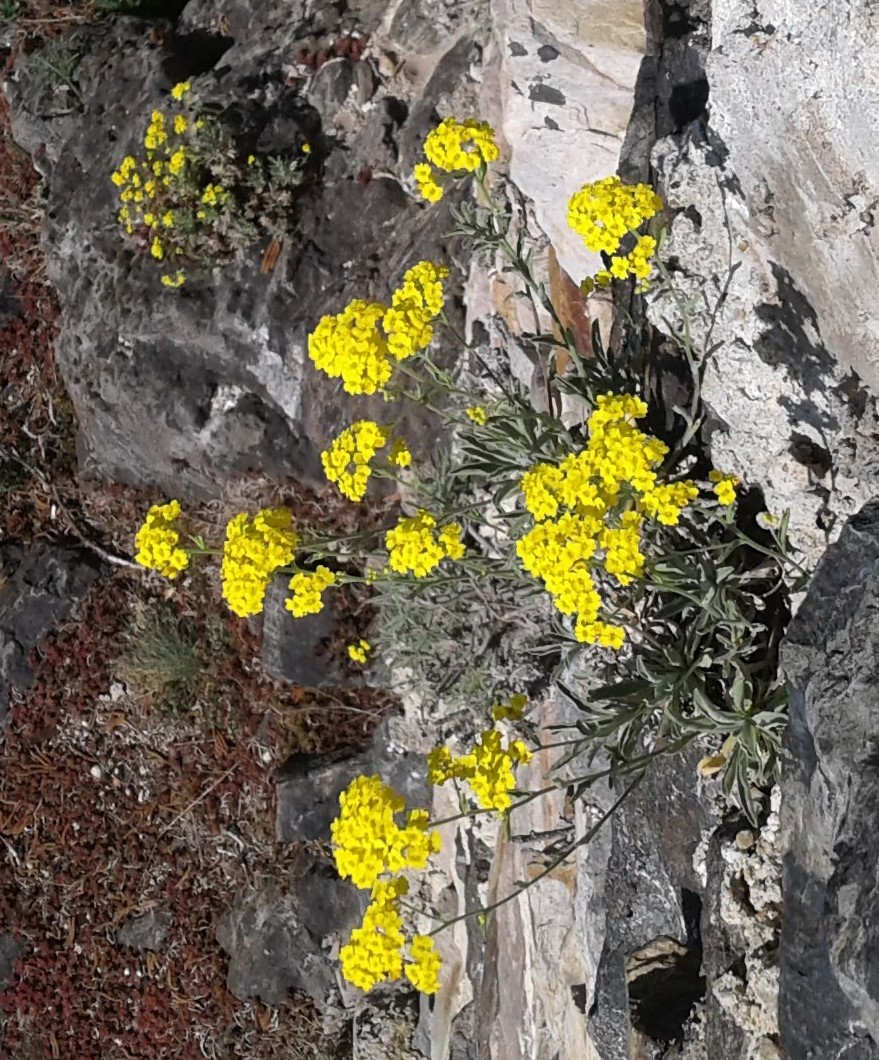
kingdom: Plantae
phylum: Tracheophyta
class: Magnoliopsida
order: Brassicales
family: Brassicaceae
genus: Aurinia
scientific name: Aurinia saxatilis
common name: Golden-tuft alyssum
